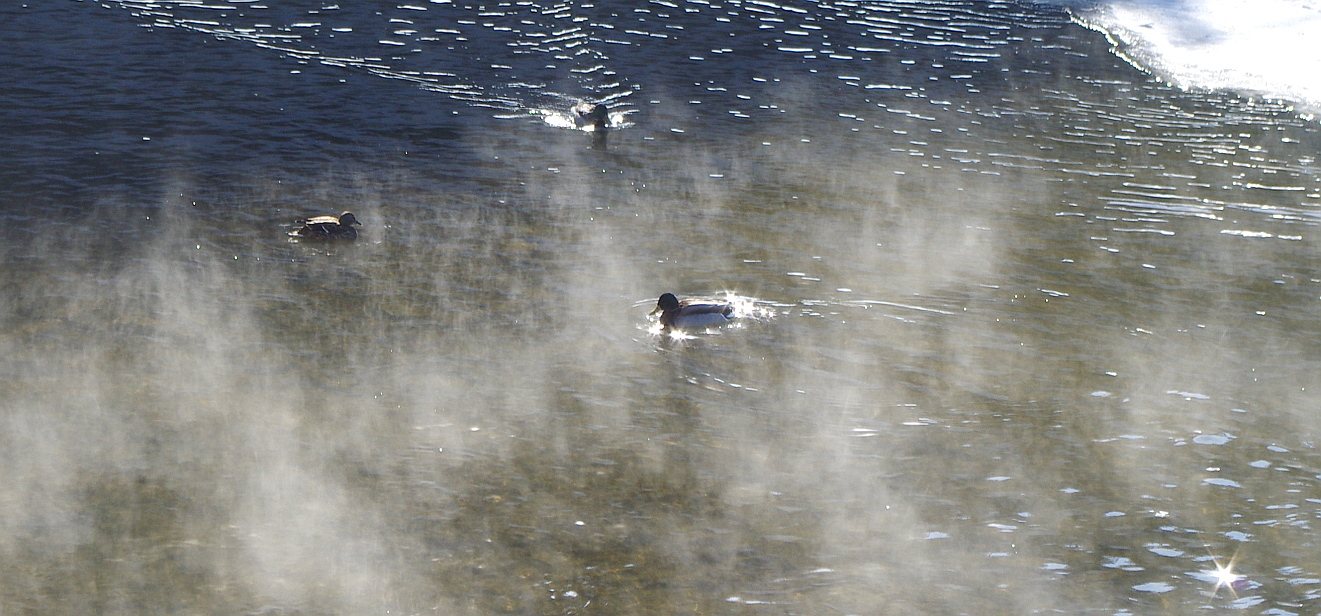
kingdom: Animalia
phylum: Chordata
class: Aves
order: Anseriformes
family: Anatidae
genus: Anas
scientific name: Anas platyrhynchos
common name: Mallard
